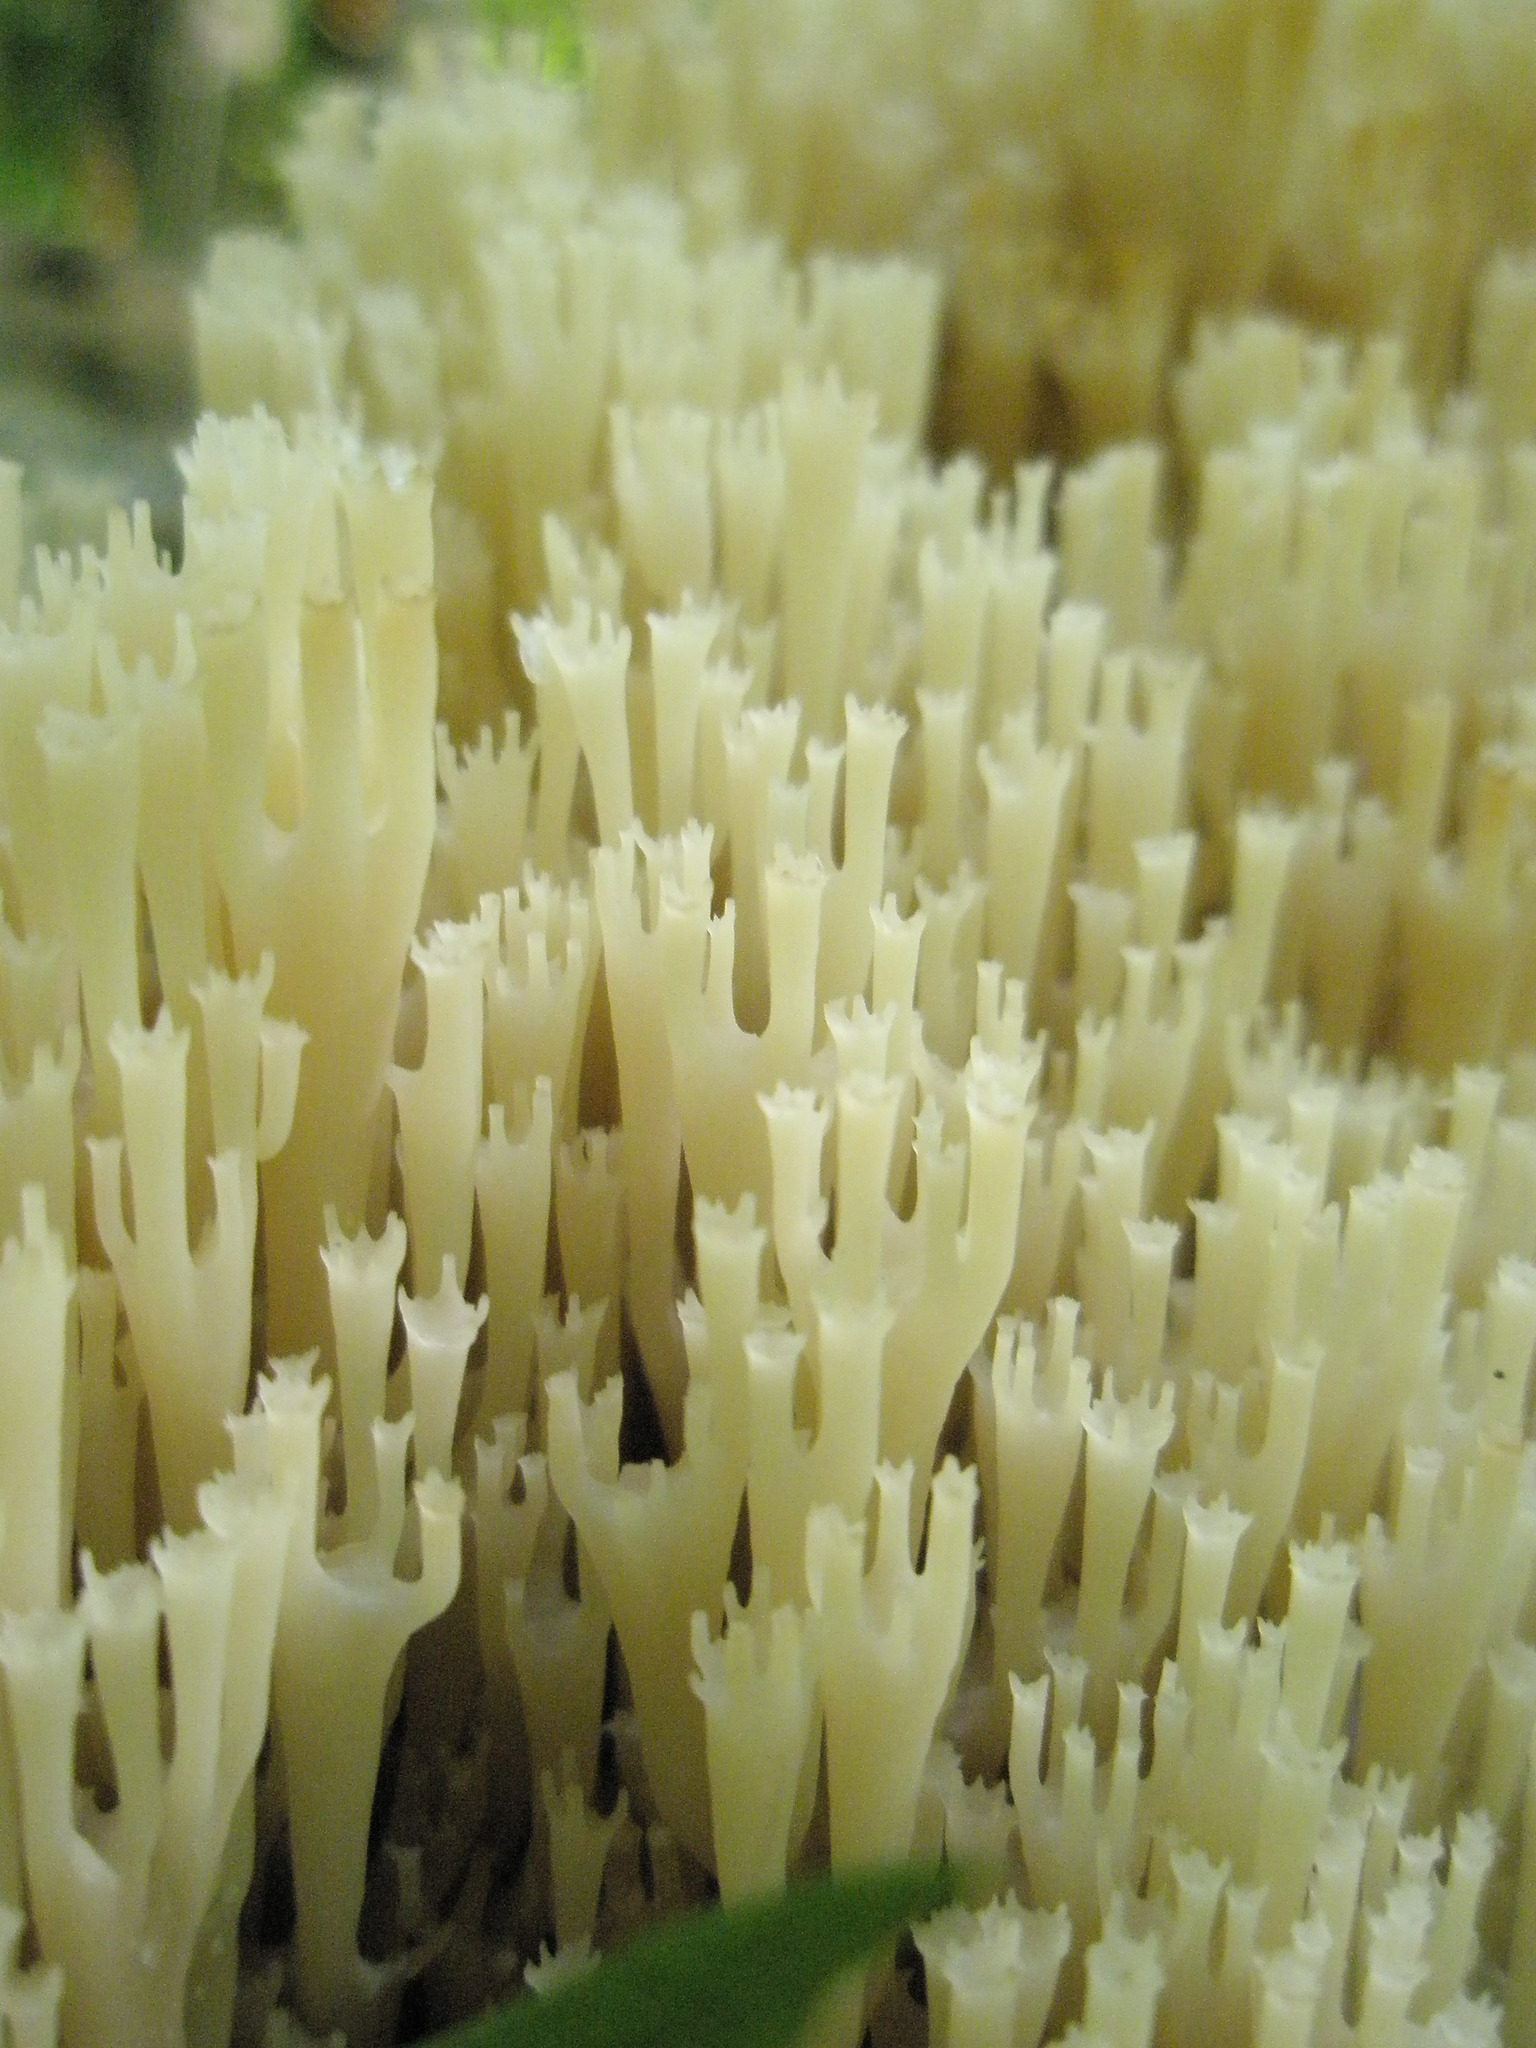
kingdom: Fungi
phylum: Basidiomycota
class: Agaricomycetes
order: Russulales
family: Auriscalpiaceae
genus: Artomyces
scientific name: Artomyces pyxidatus
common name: Crown-tipped coral fungus
